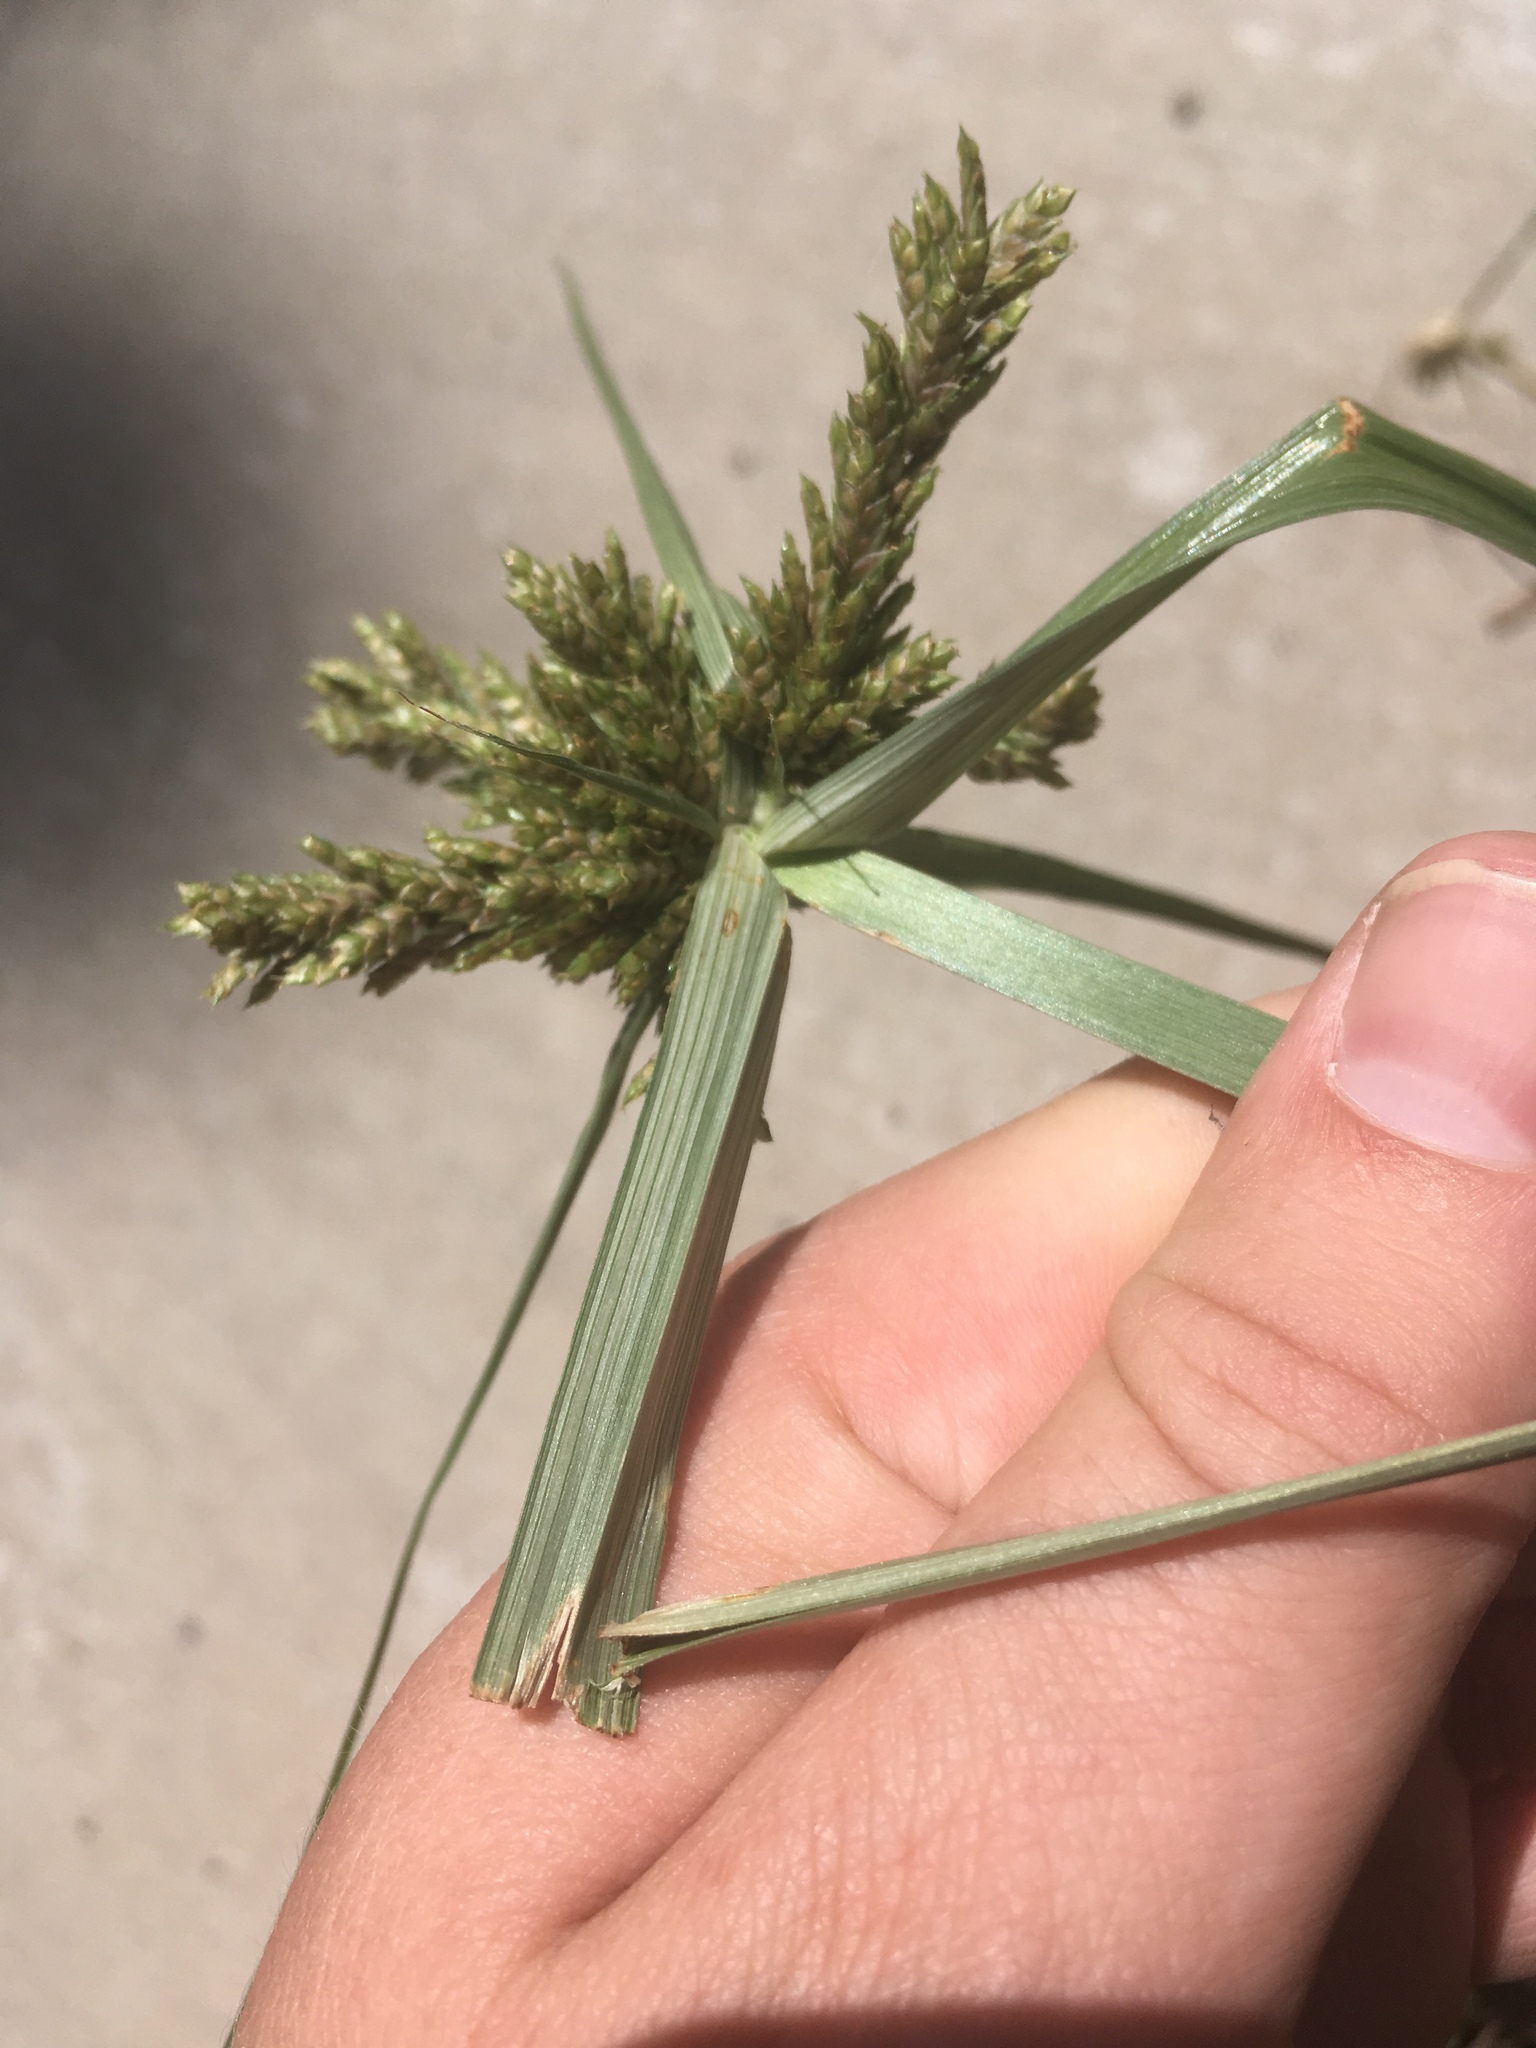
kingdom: Plantae
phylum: Tracheophyta
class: Liliopsida
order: Poales
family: Cyperaceae
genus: Cyperus
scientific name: Cyperus fendlerianus
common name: Fendler flat sedge
